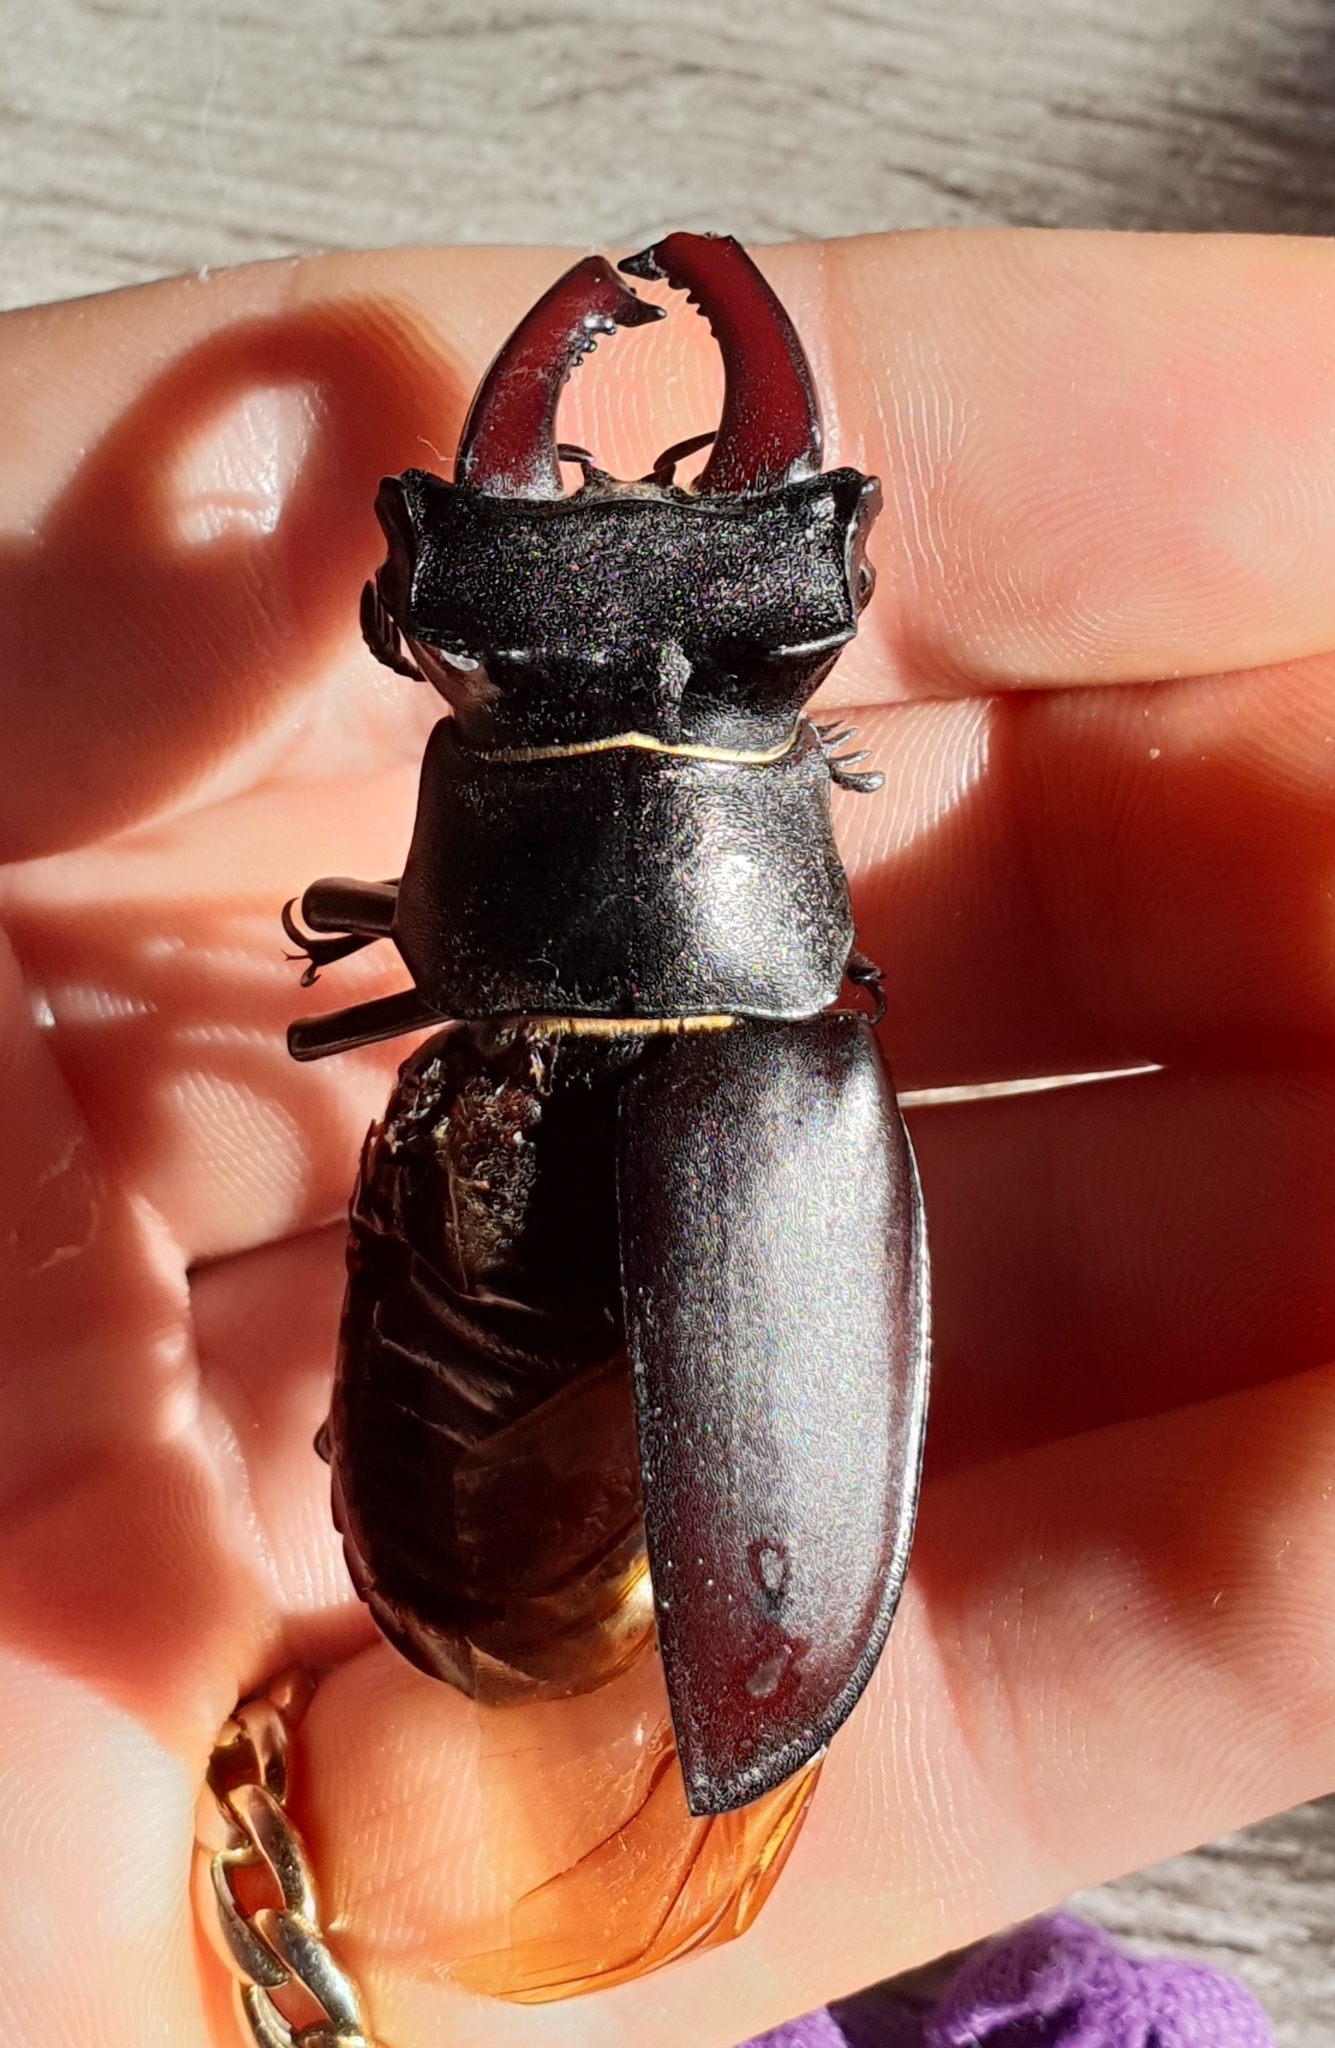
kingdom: Animalia
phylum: Arthropoda
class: Insecta
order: Coleoptera
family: Lucanidae
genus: Lucanus
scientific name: Lucanus cervus
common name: Stag beetle
